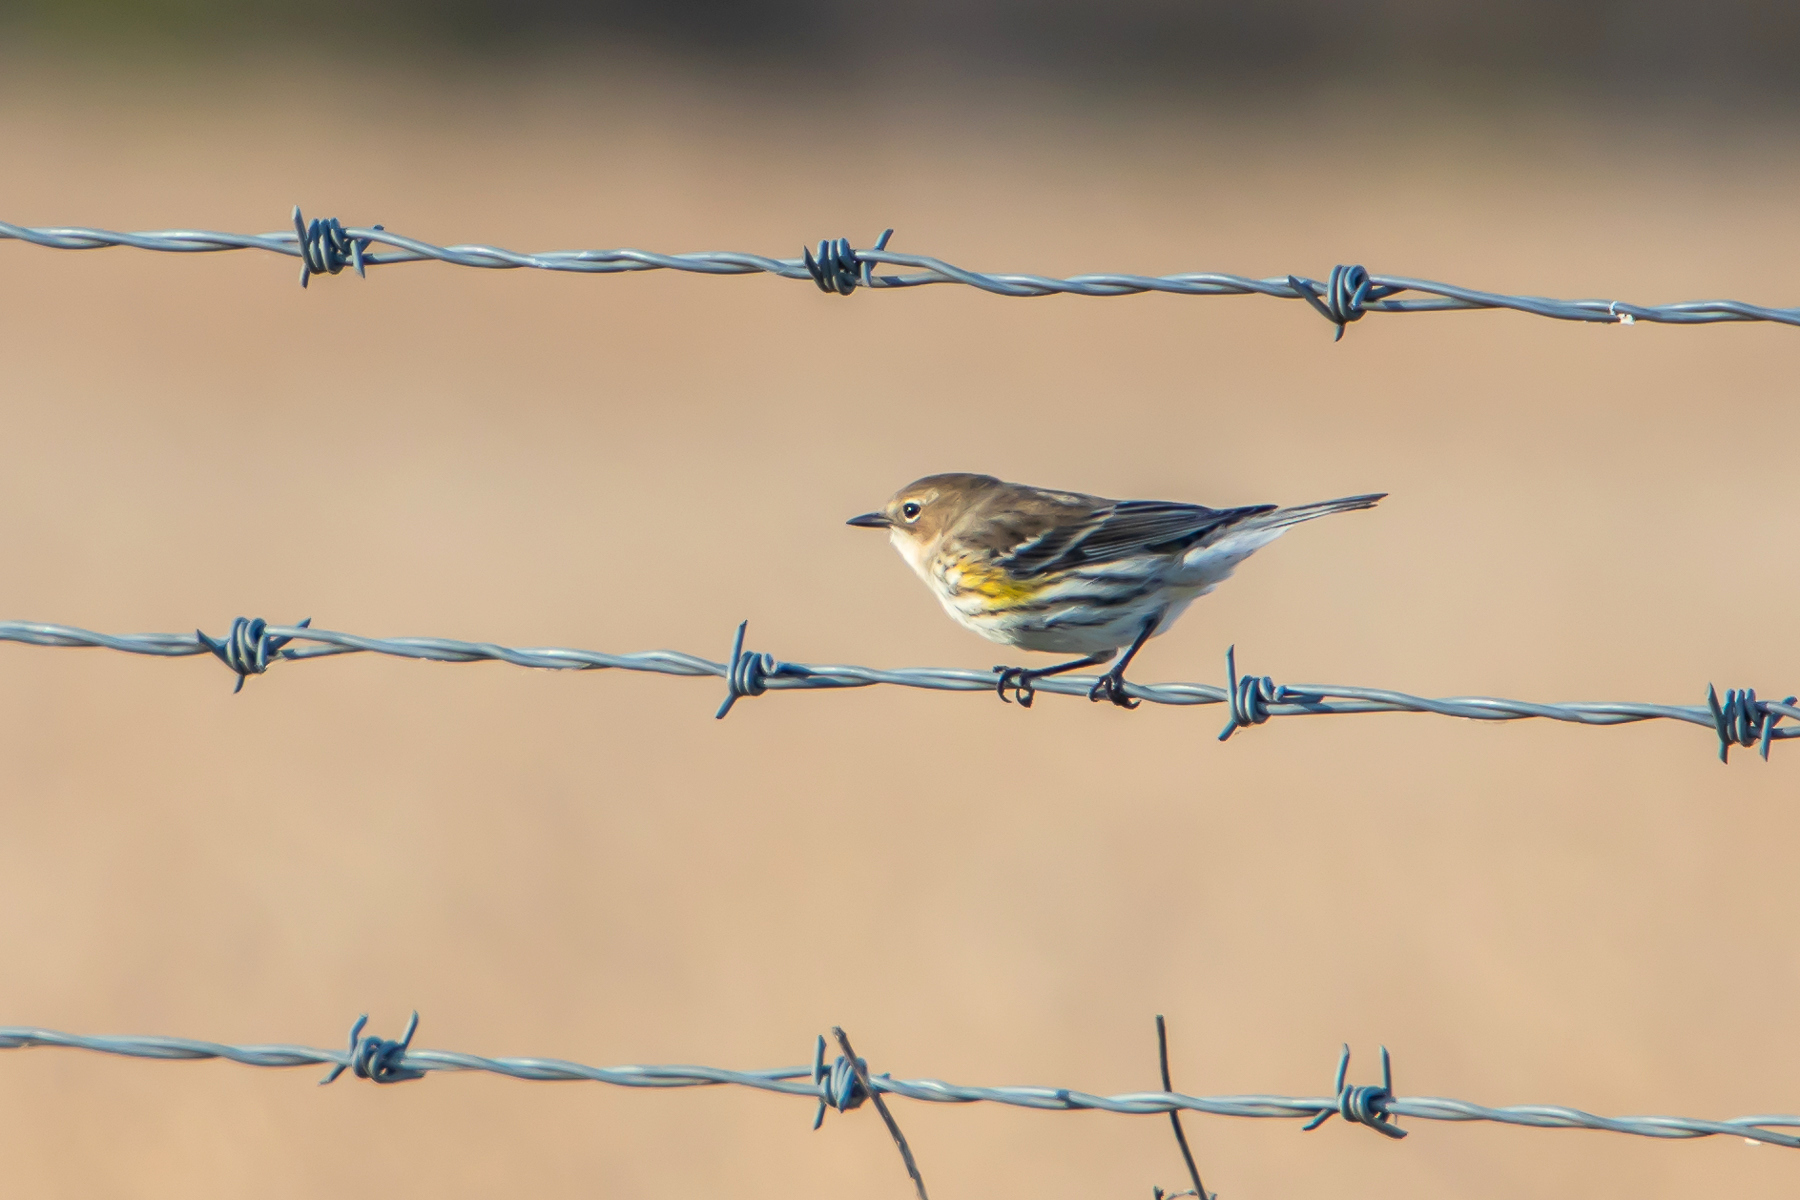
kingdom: Animalia
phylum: Chordata
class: Aves
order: Passeriformes
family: Parulidae
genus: Setophaga
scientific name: Setophaga coronata
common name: Myrtle warbler
